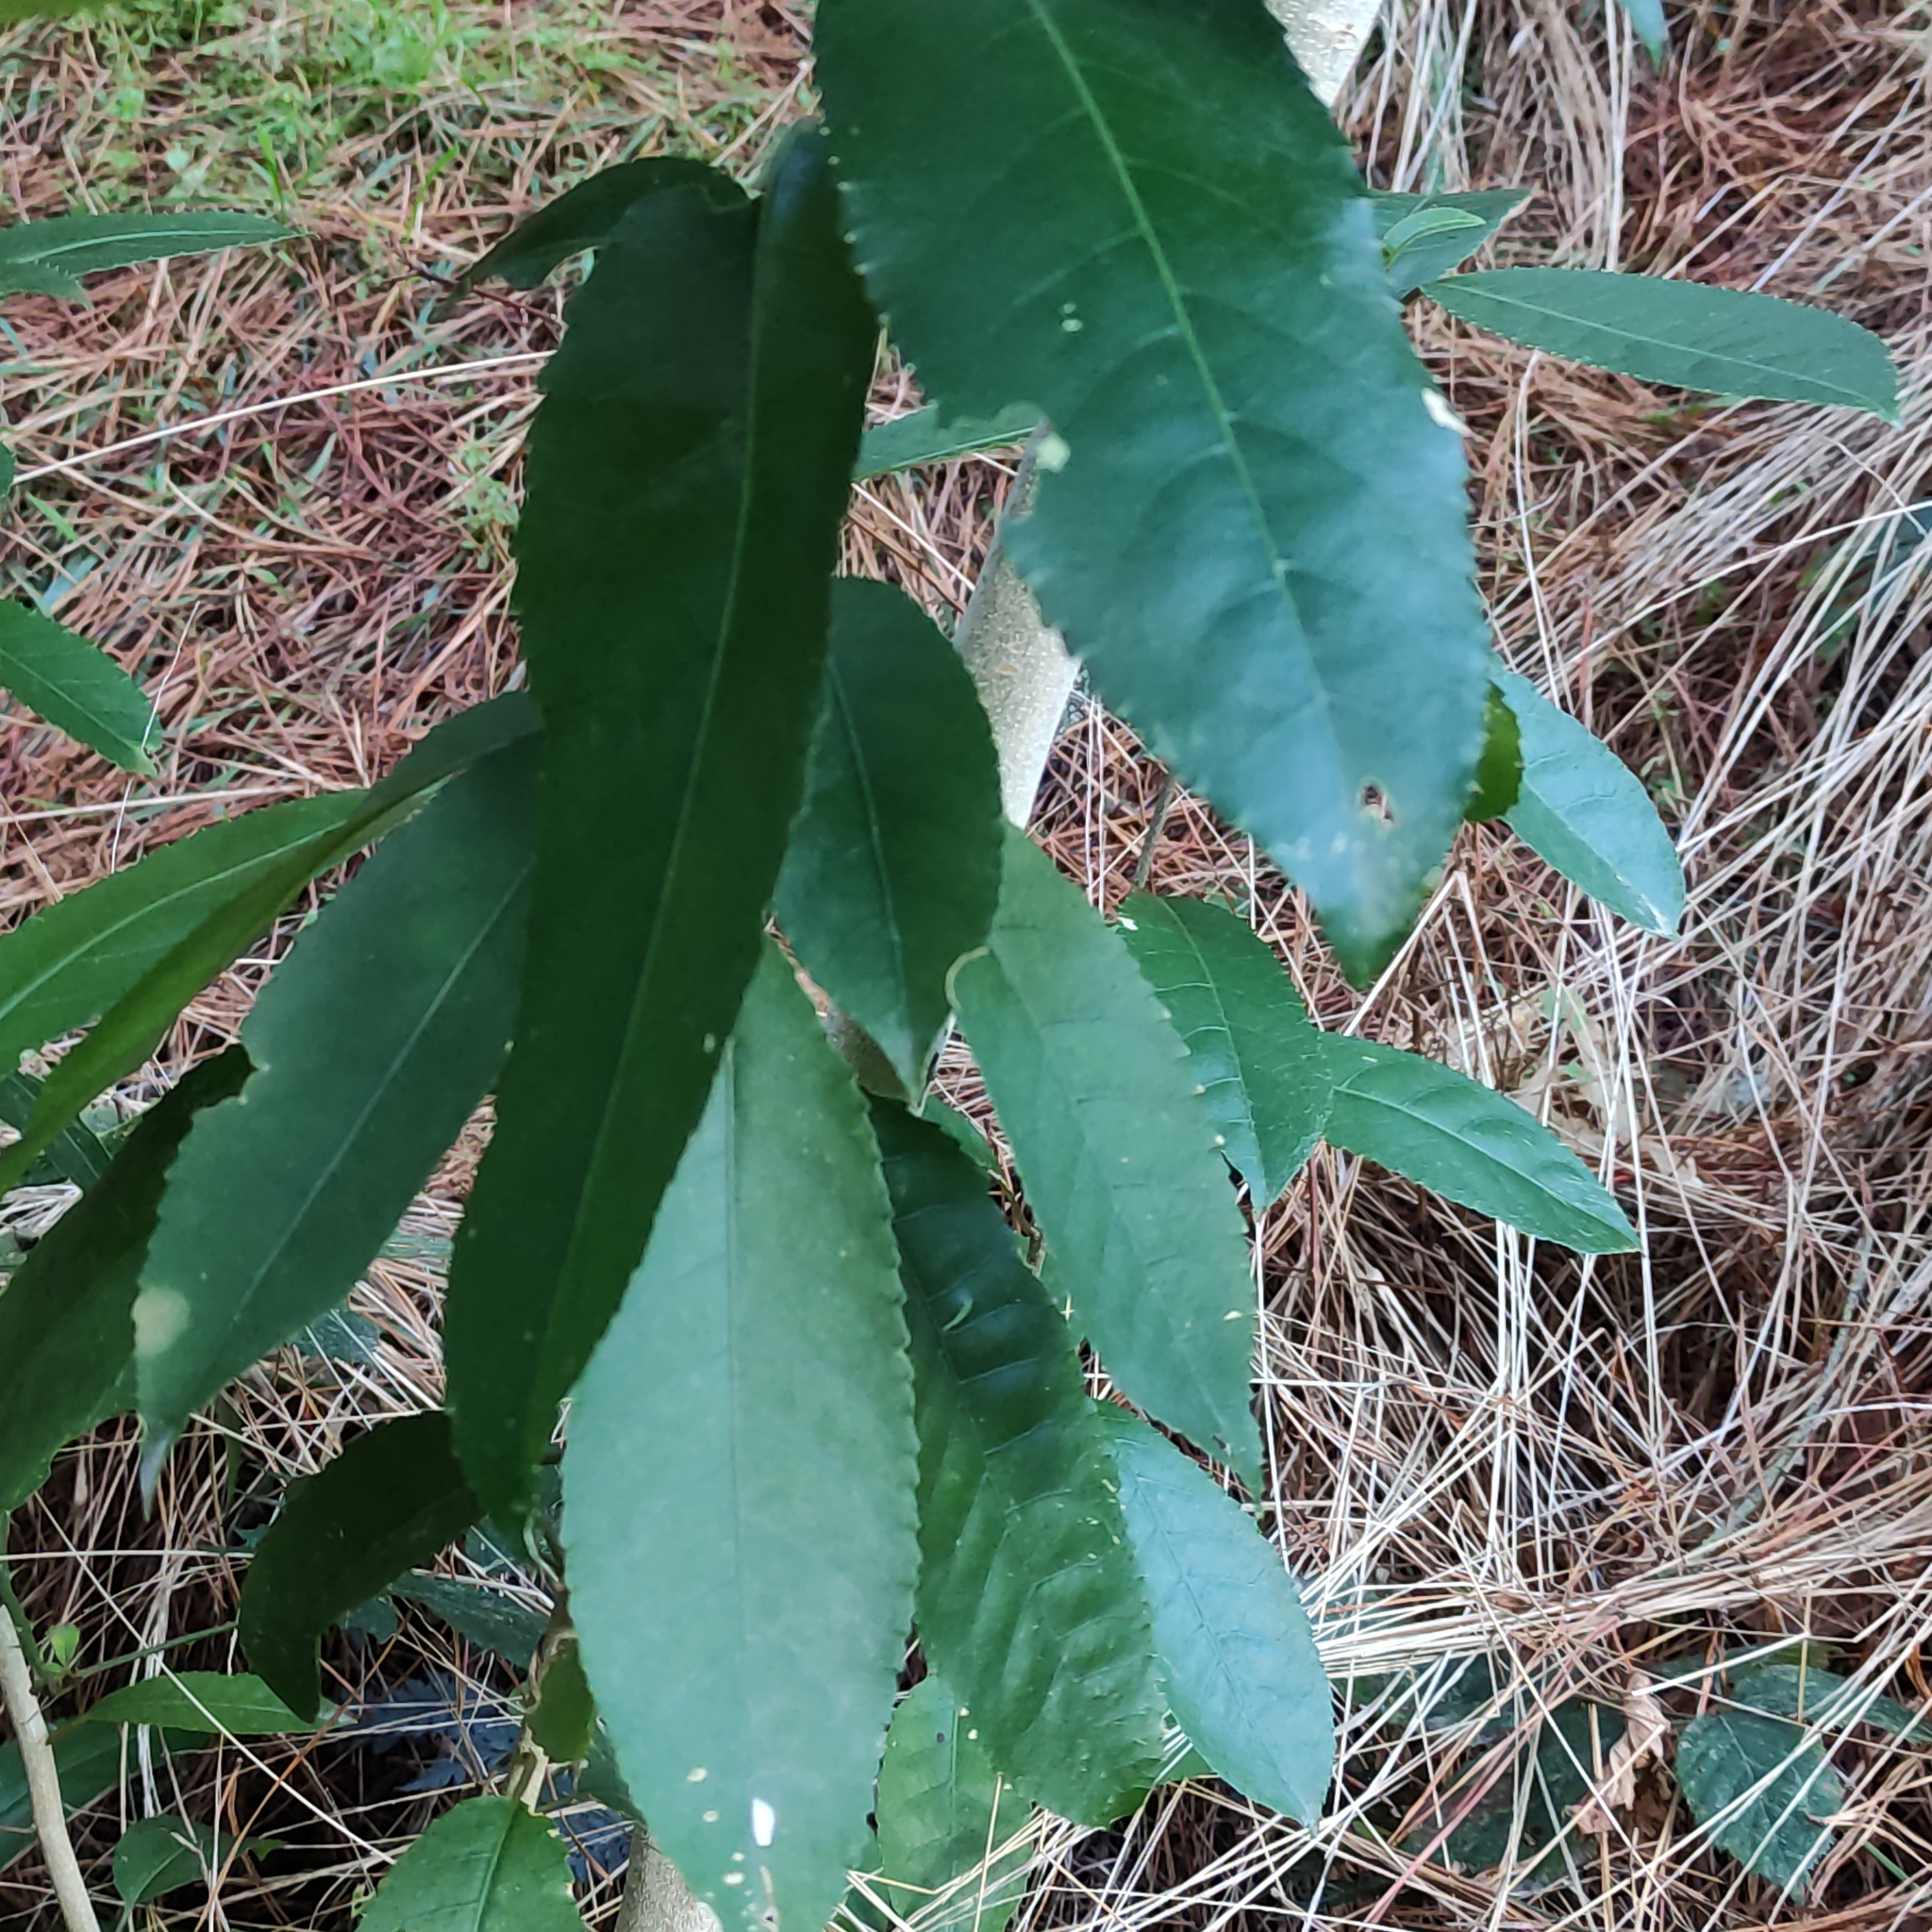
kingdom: Plantae
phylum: Tracheophyta
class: Magnoliopsida
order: Malpighiales
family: Violaceae
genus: Melicytus
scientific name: Melicytus ramiflorus
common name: Mahoe
